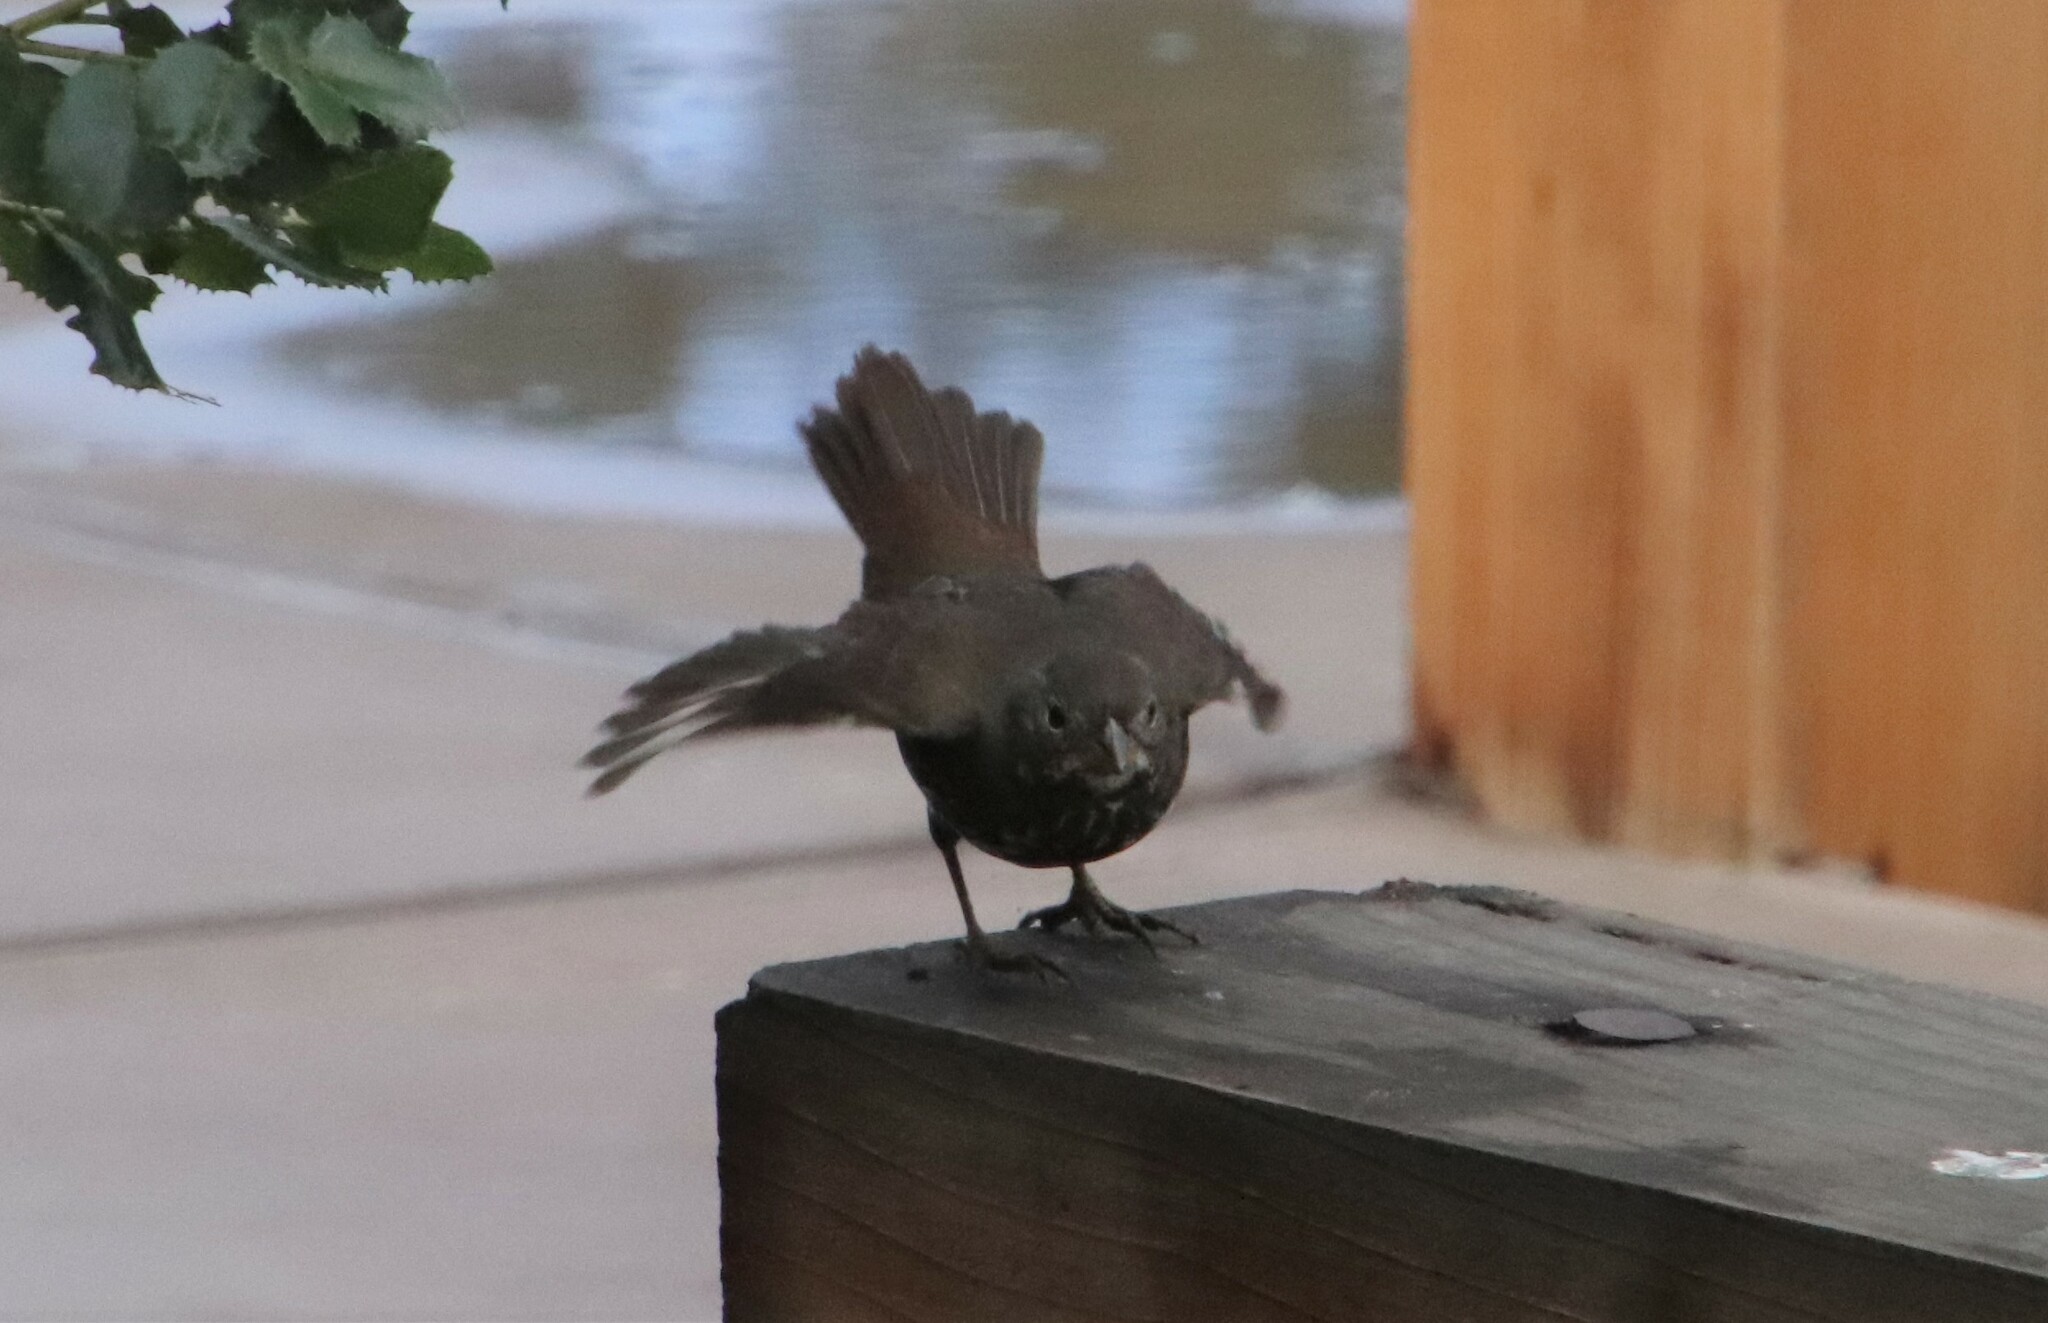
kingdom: Animalia
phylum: Chordata
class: Aves
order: Passeriformes
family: Passerellidae
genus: Passerella
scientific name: Passerella iliaca
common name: Fox sparrow
